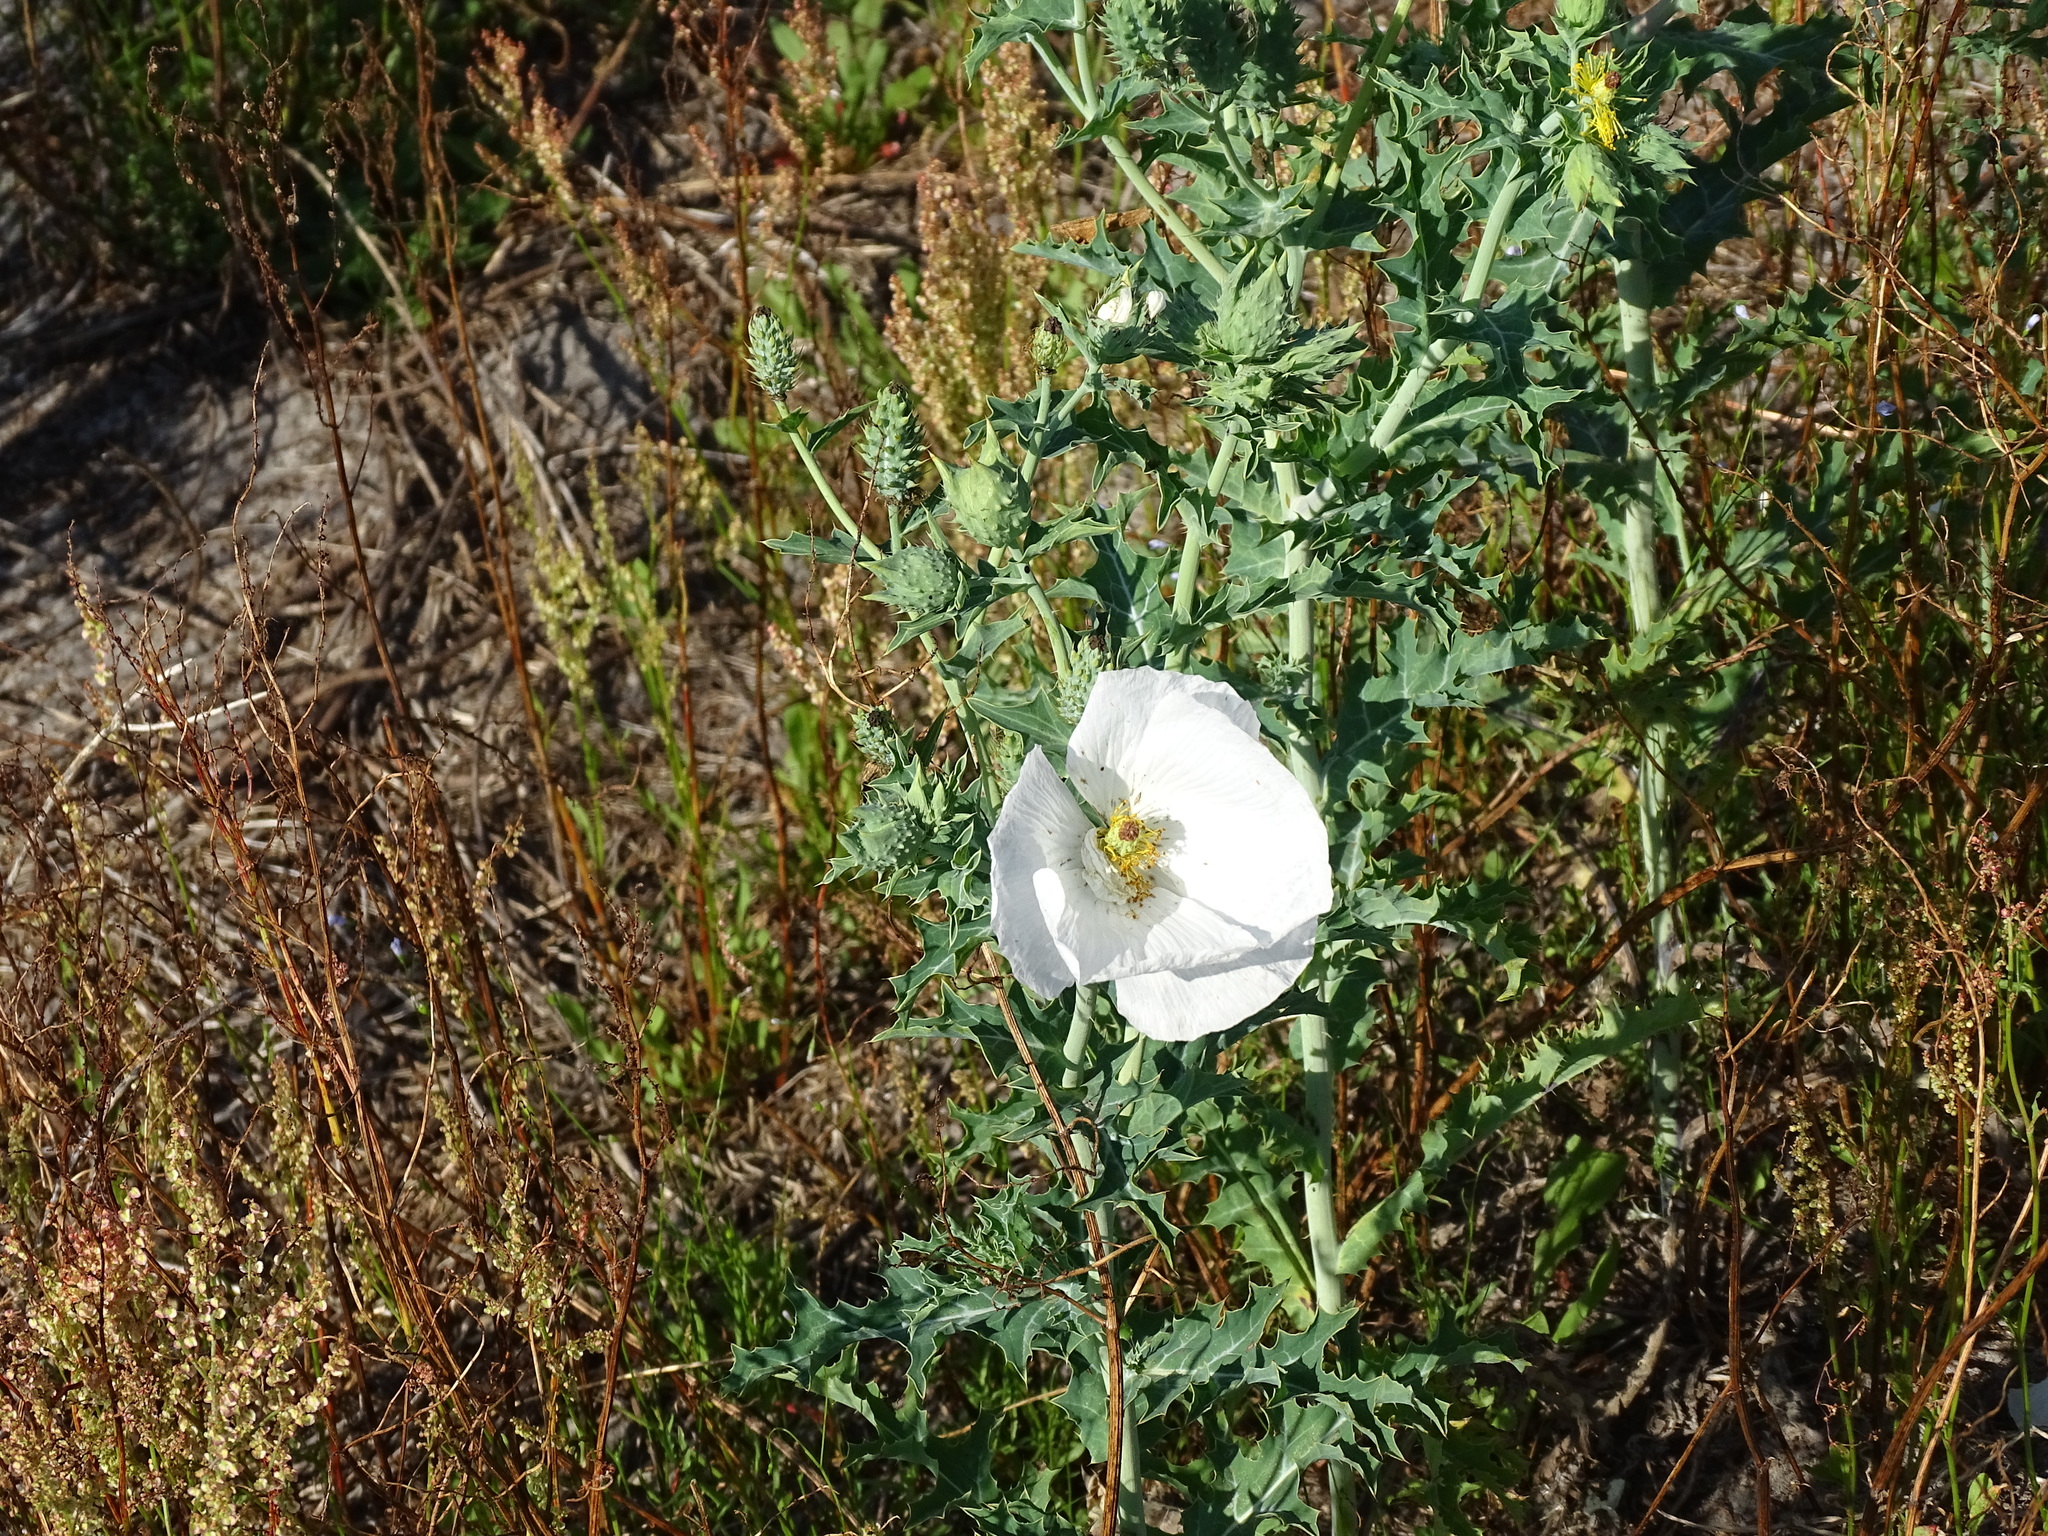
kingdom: Plantae
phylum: Tracheophyta
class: Magnoliopsida
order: Ranunculales
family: Papaveraceae
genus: Argemone
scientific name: Argemone albiflora
